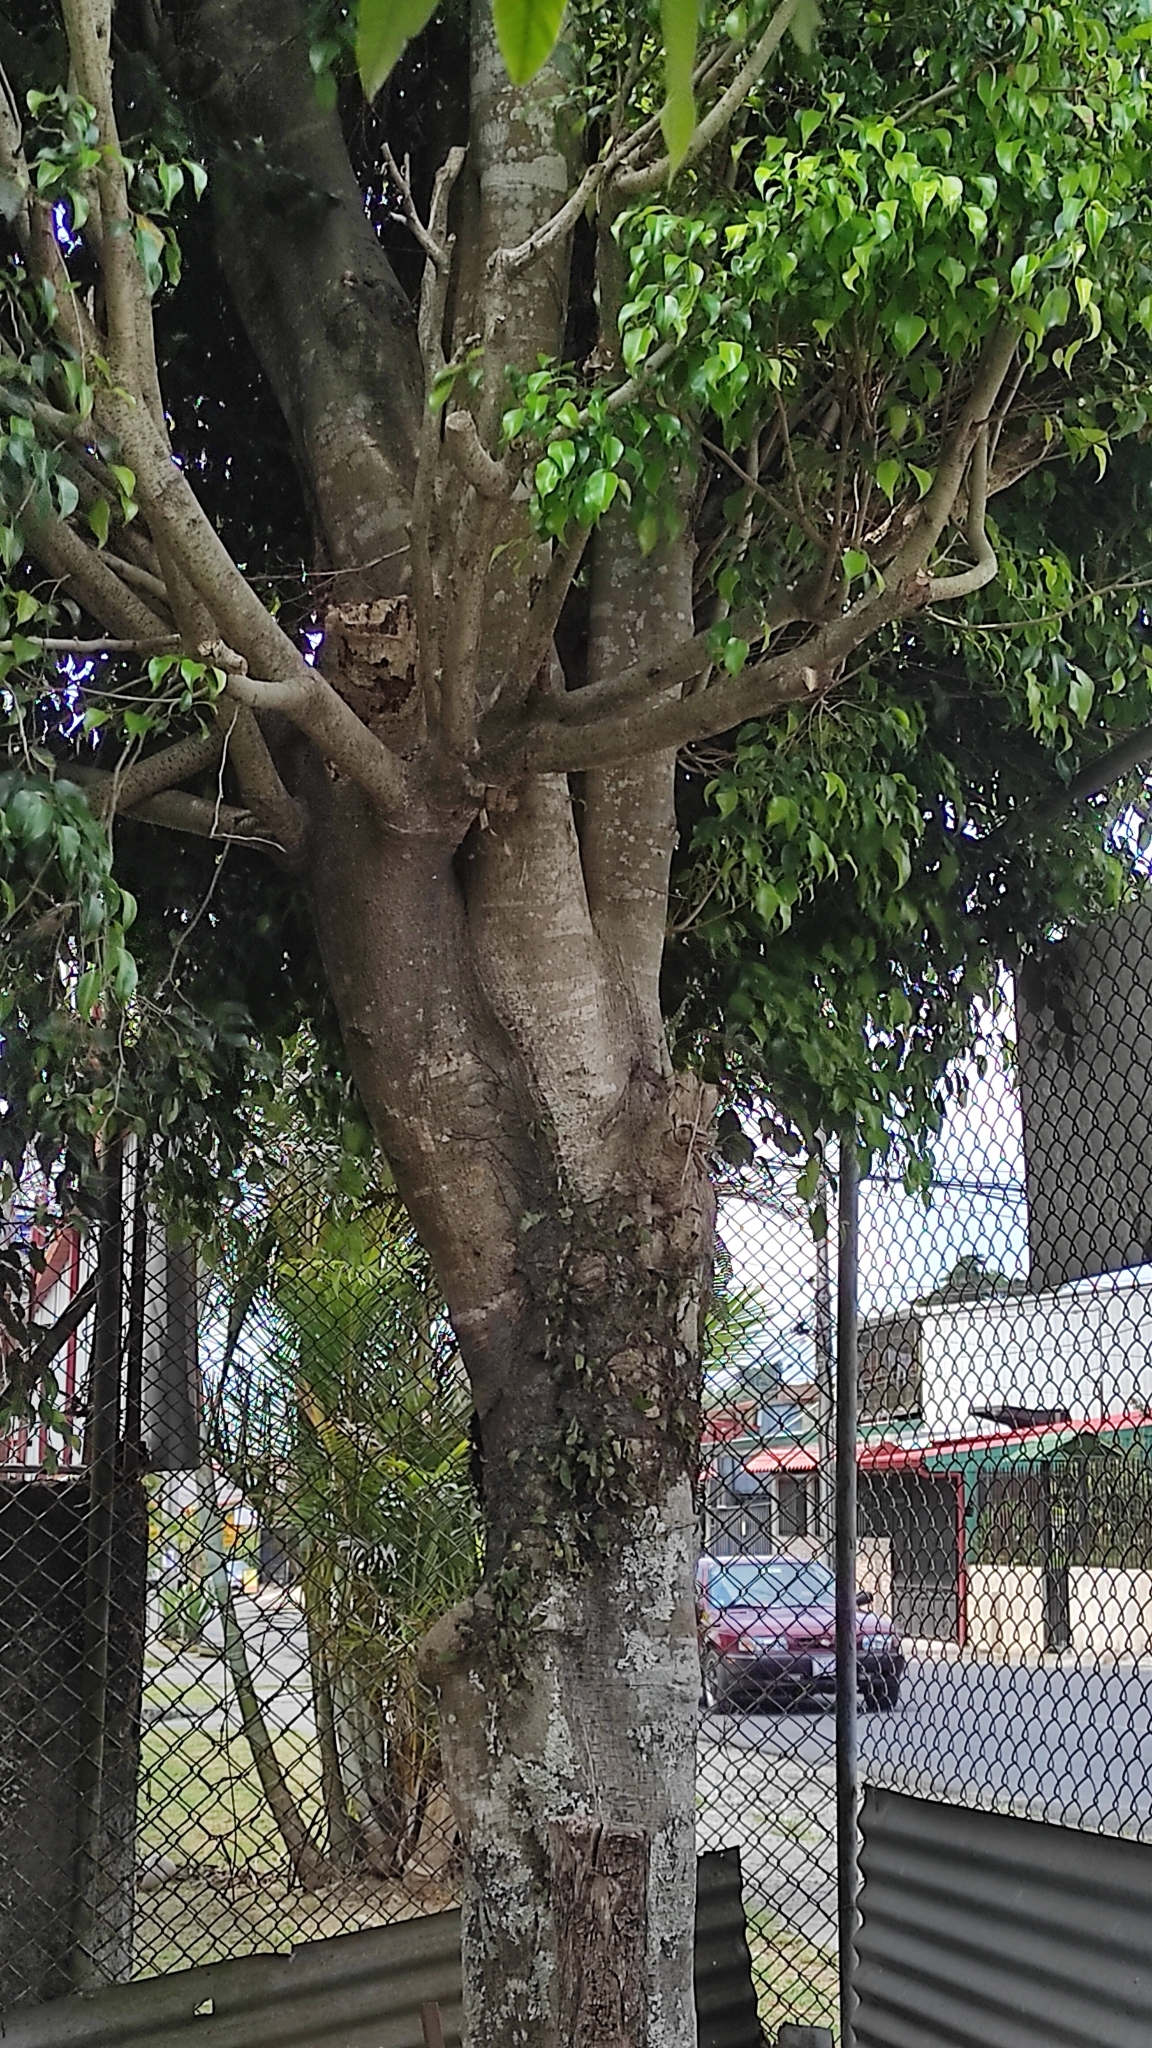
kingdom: Plantae
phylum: Tracheophyta
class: Magnoliopsida
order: Rosales
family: Moraceae
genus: Ficus
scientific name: Ficus benjamina
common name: Weeping fig
